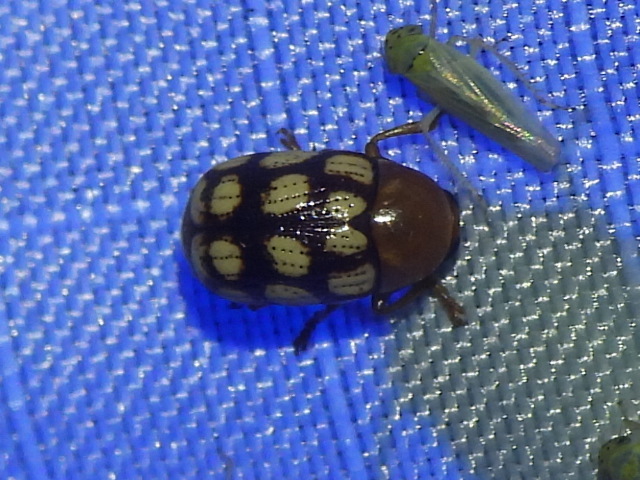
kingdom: Animalia
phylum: Arthropoda
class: Insecta
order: Coleoptera
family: Chrysomelidae
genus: Cryptocephalus
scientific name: Cryptocephalus guttulatus
